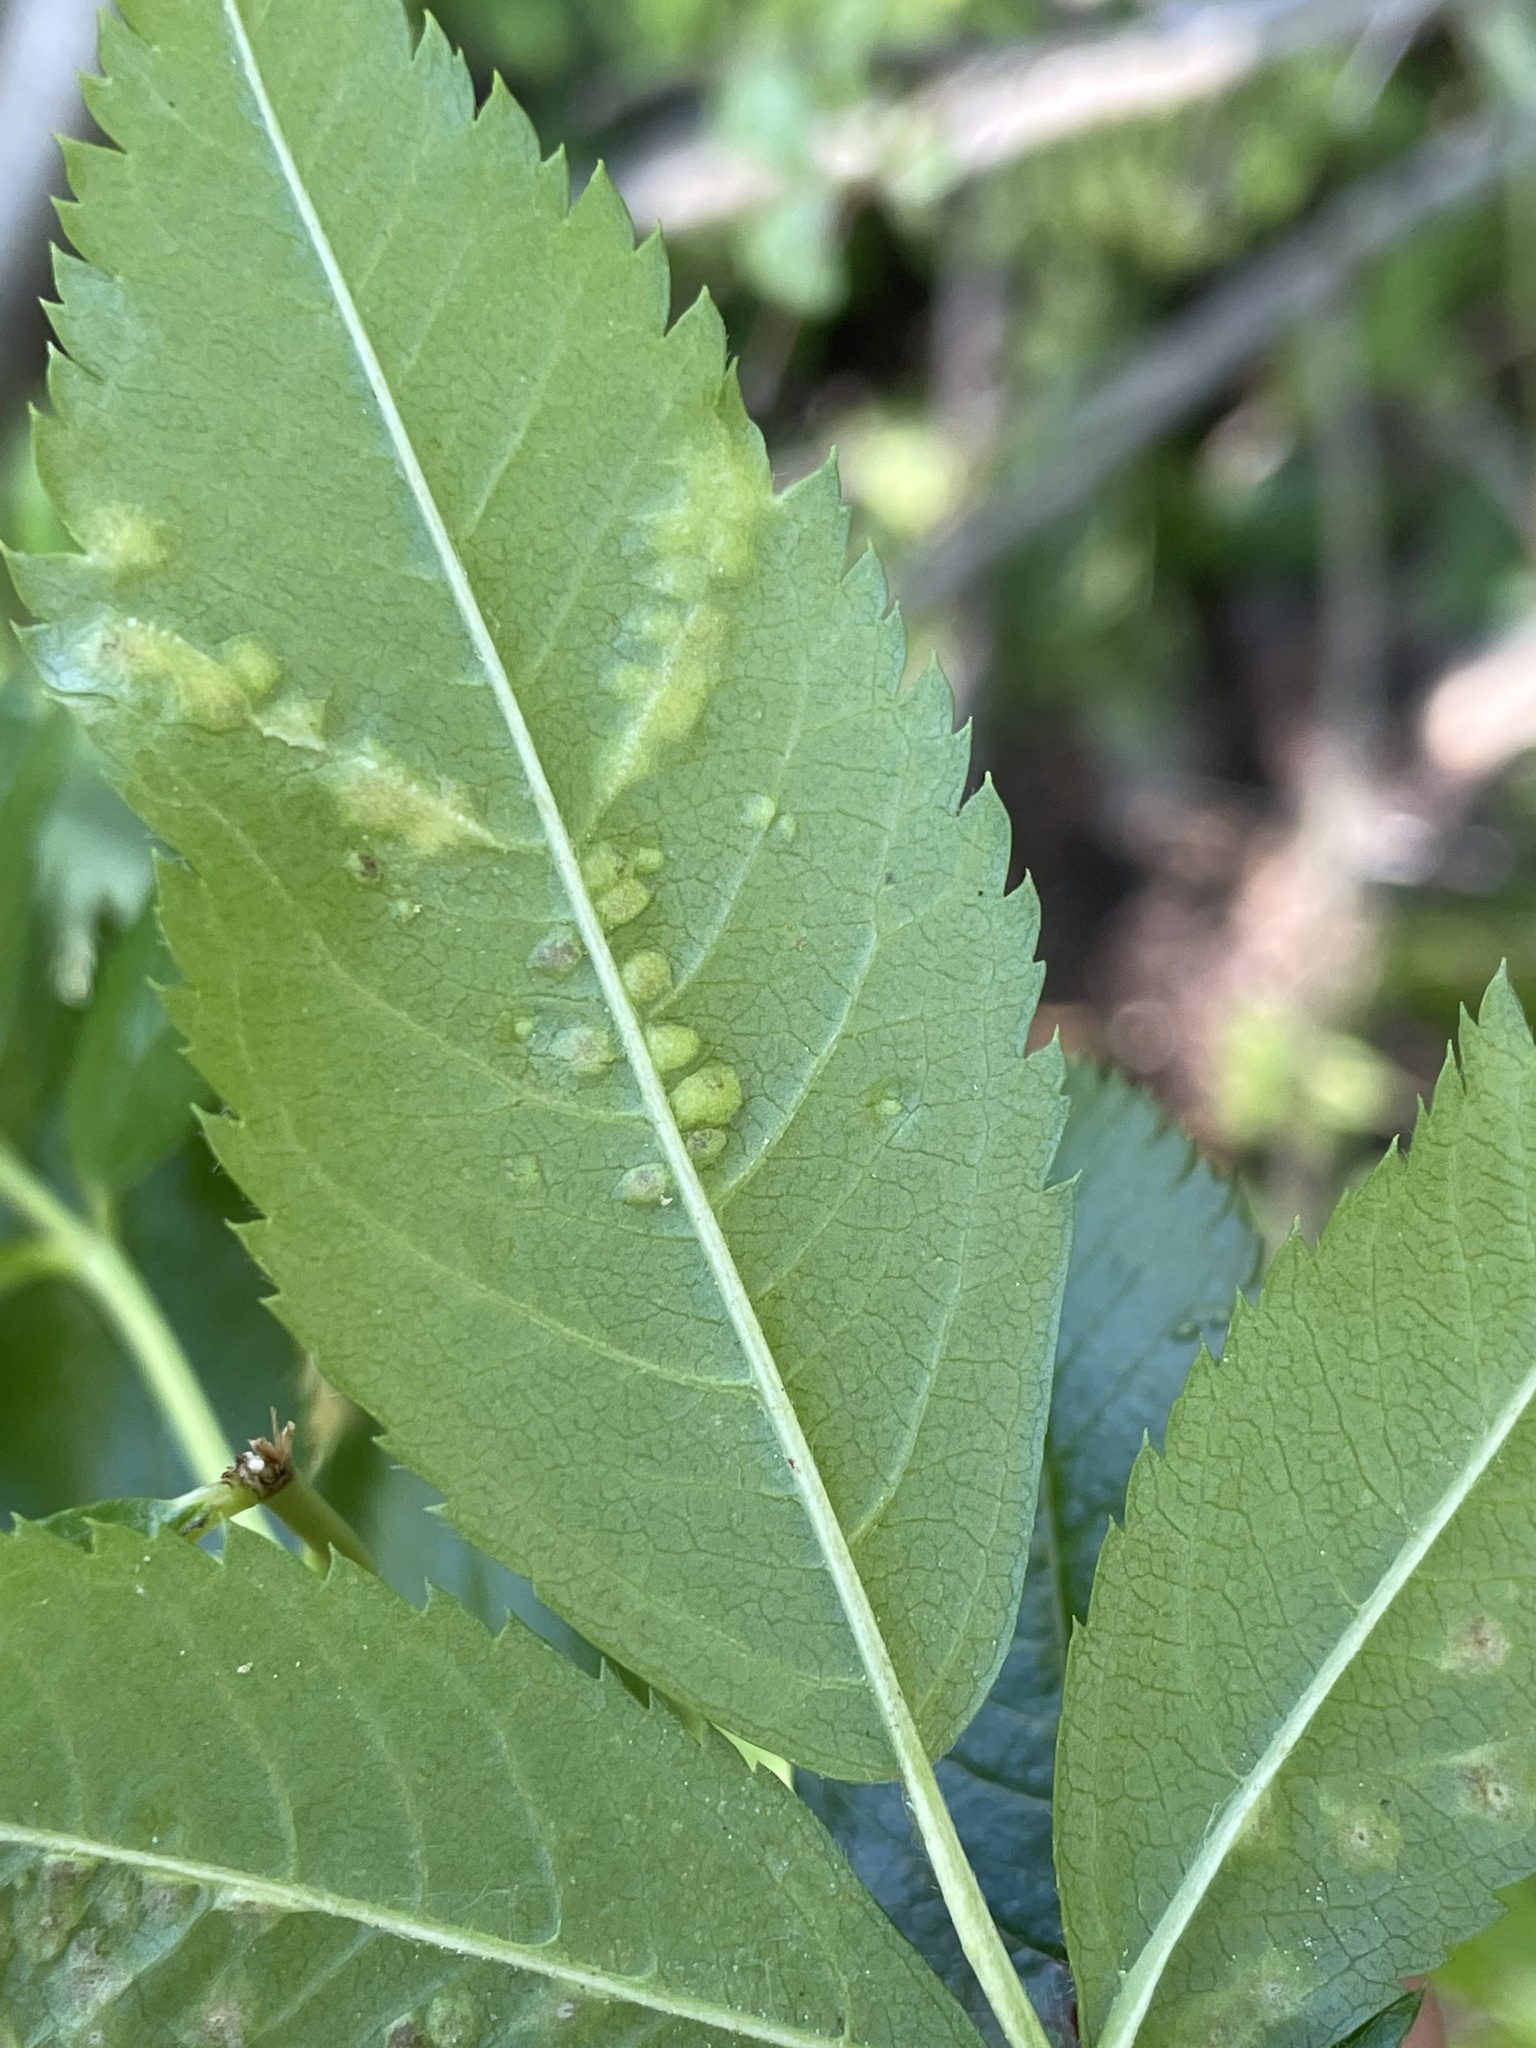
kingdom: Animalia
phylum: Arthropoda
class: Arachnida
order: Trombidiformes
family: Eriophyidae
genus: Eriophyes
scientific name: Eriophyes sorbi
